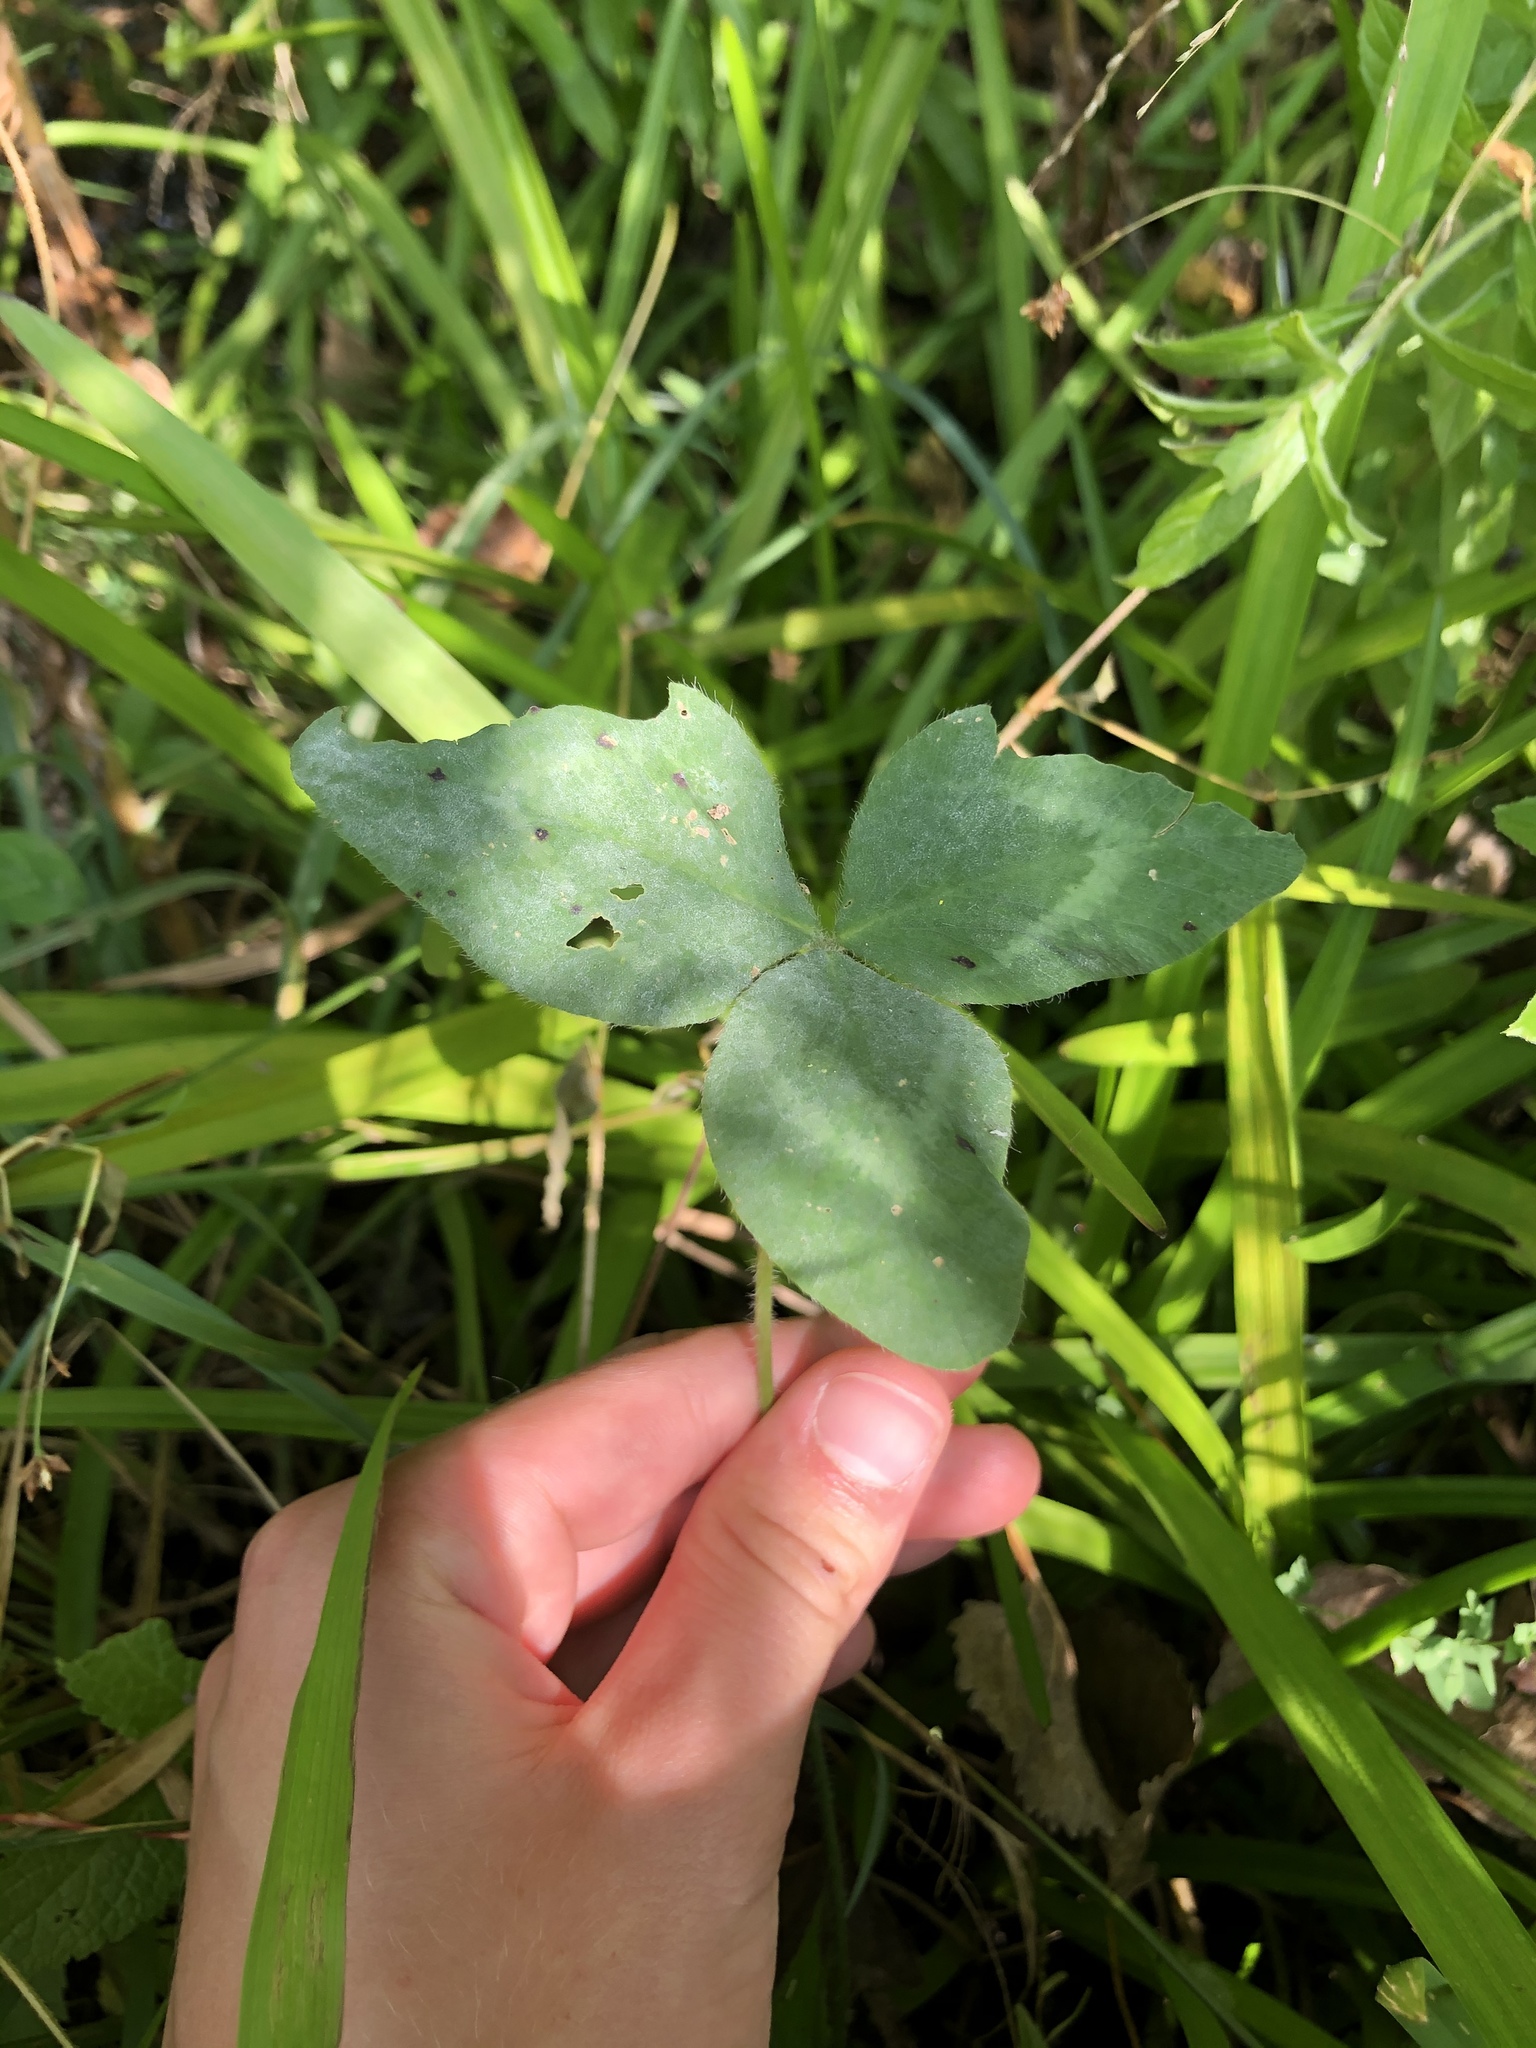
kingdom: Plantae
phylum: Tracheophyta
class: Magnoliopsida
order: Fabales
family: Fabaceae
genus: Trifolium
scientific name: Trifolium pratense
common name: Red clover
